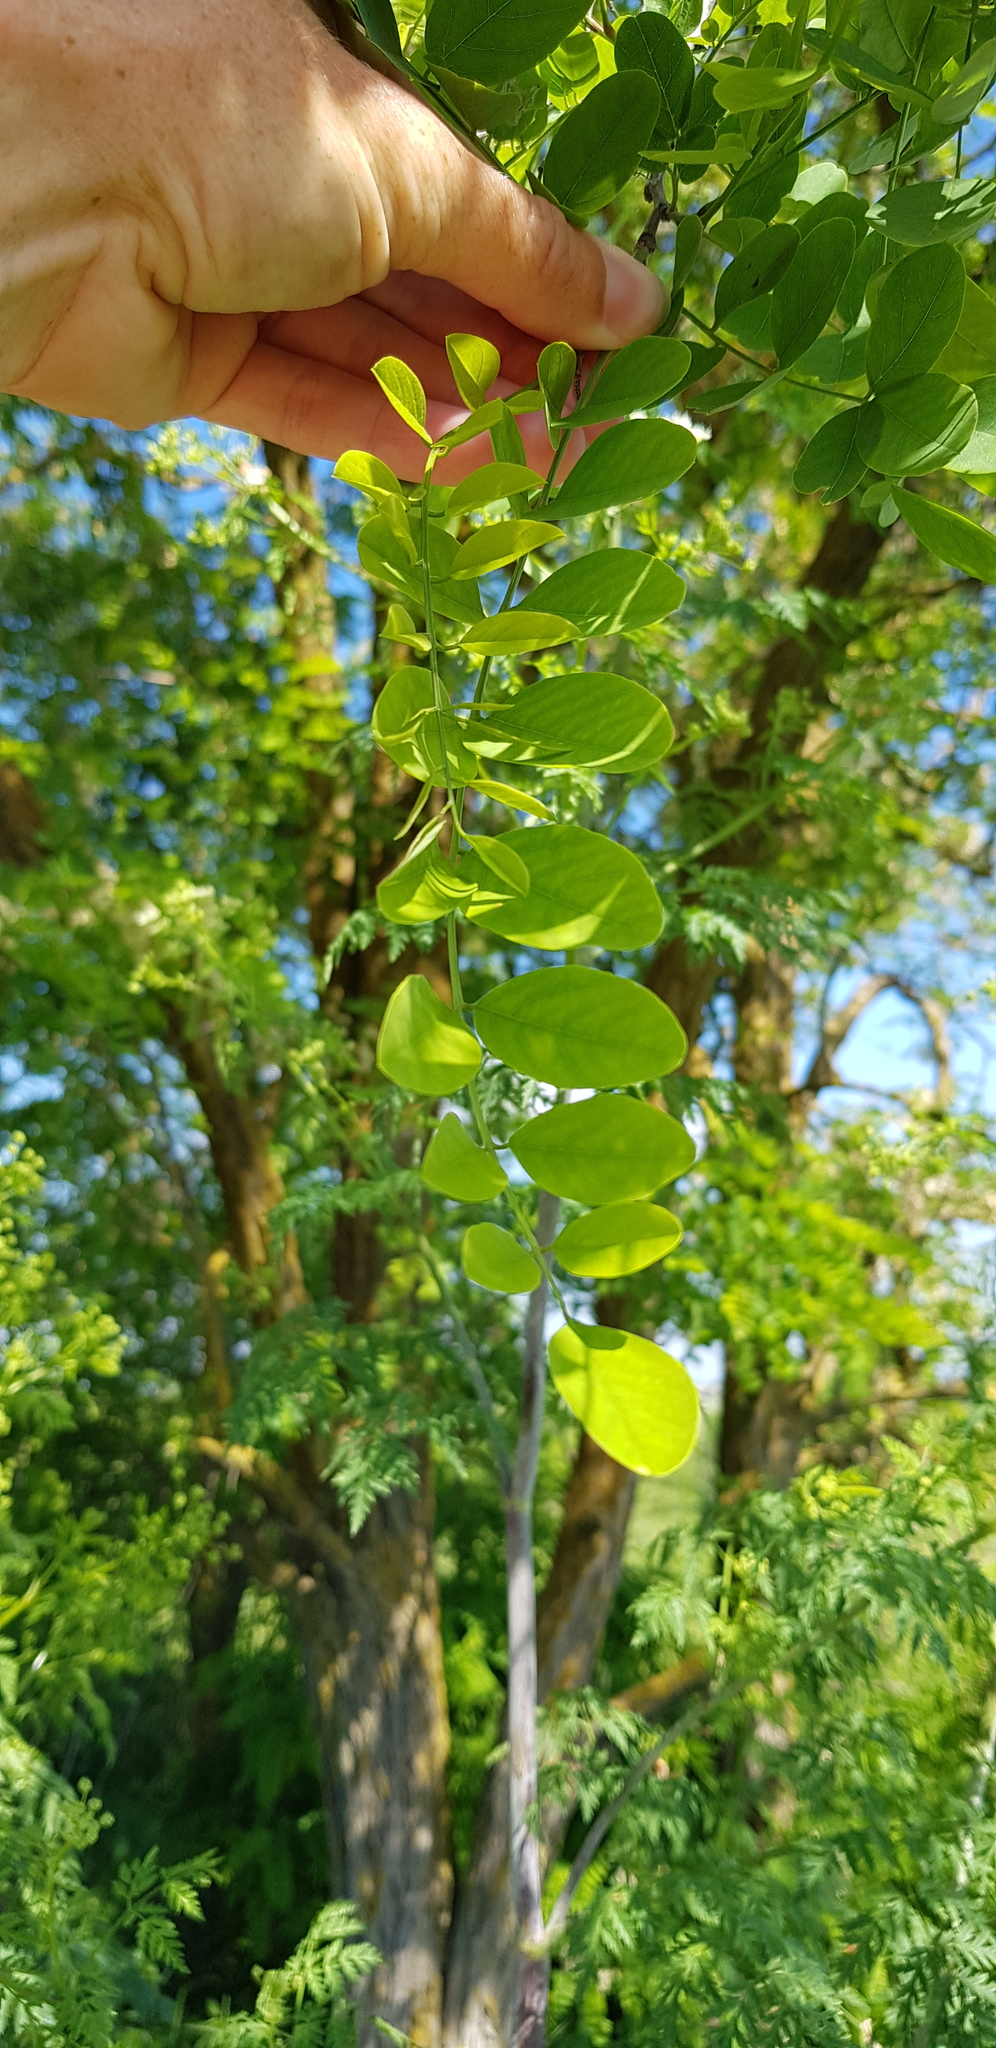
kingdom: Plantae
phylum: Tracheophyta
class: Magnoliopsida
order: Fabales
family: Fabaceae
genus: Robinia
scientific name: Robinia pseudoacacia
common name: Black locust
